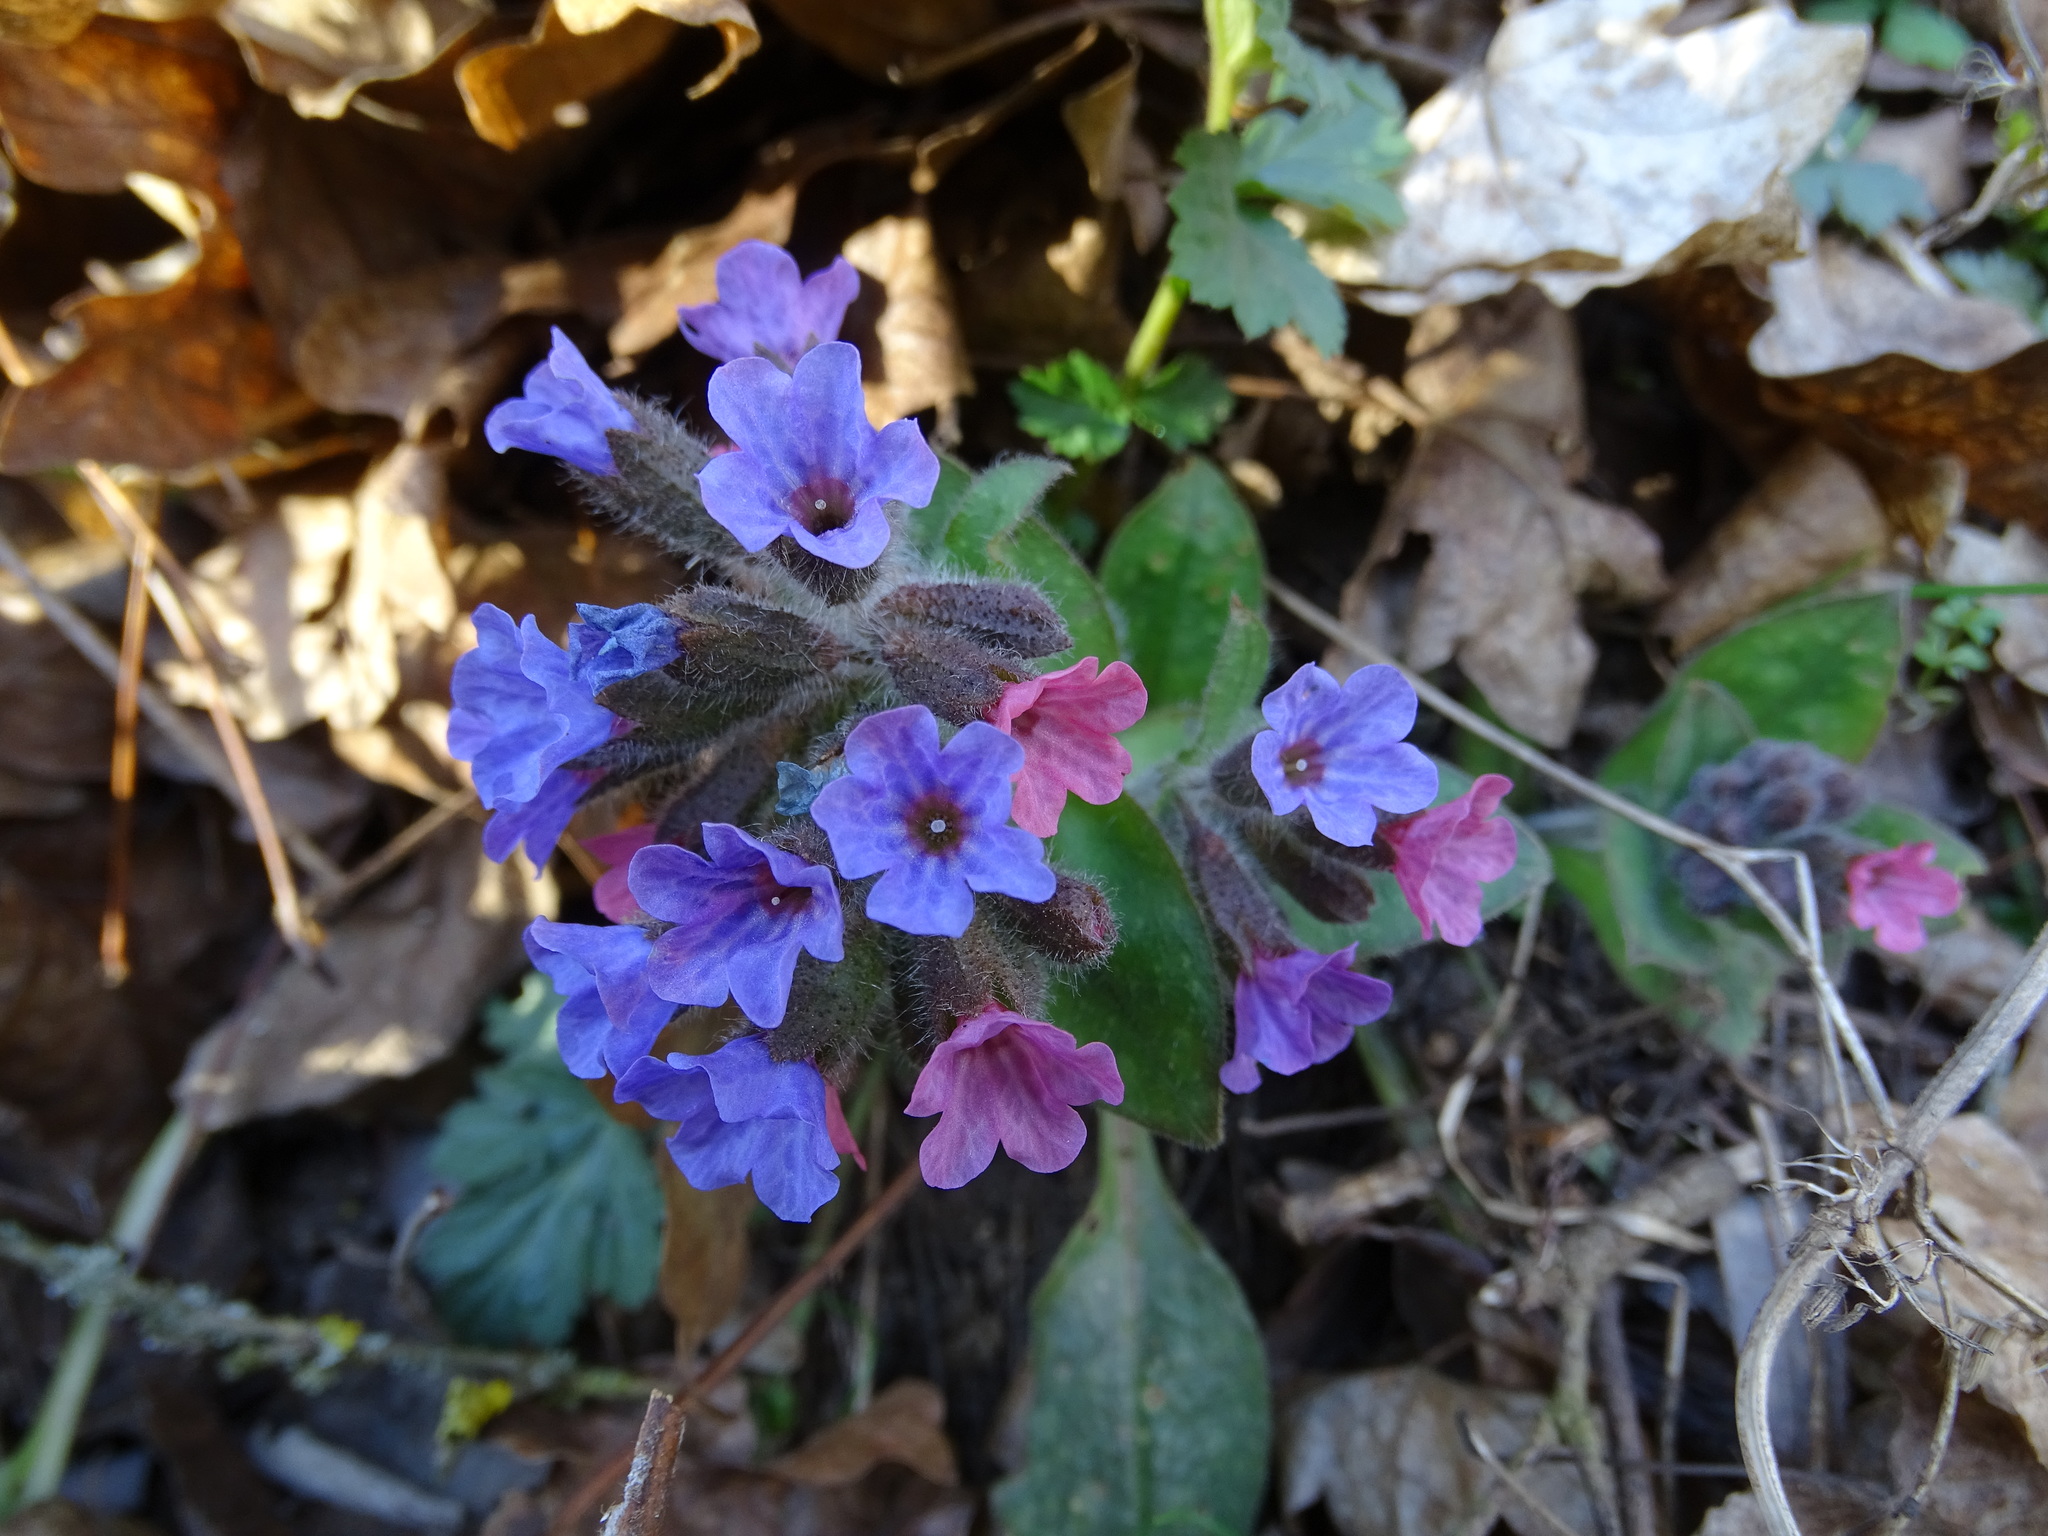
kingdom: Plantae
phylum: Tracheophyta
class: Magnoliopsida
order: Boraginales
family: Boraginaceae
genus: Pulmonaria
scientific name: Pulmonaria officinalis
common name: Lungwort
